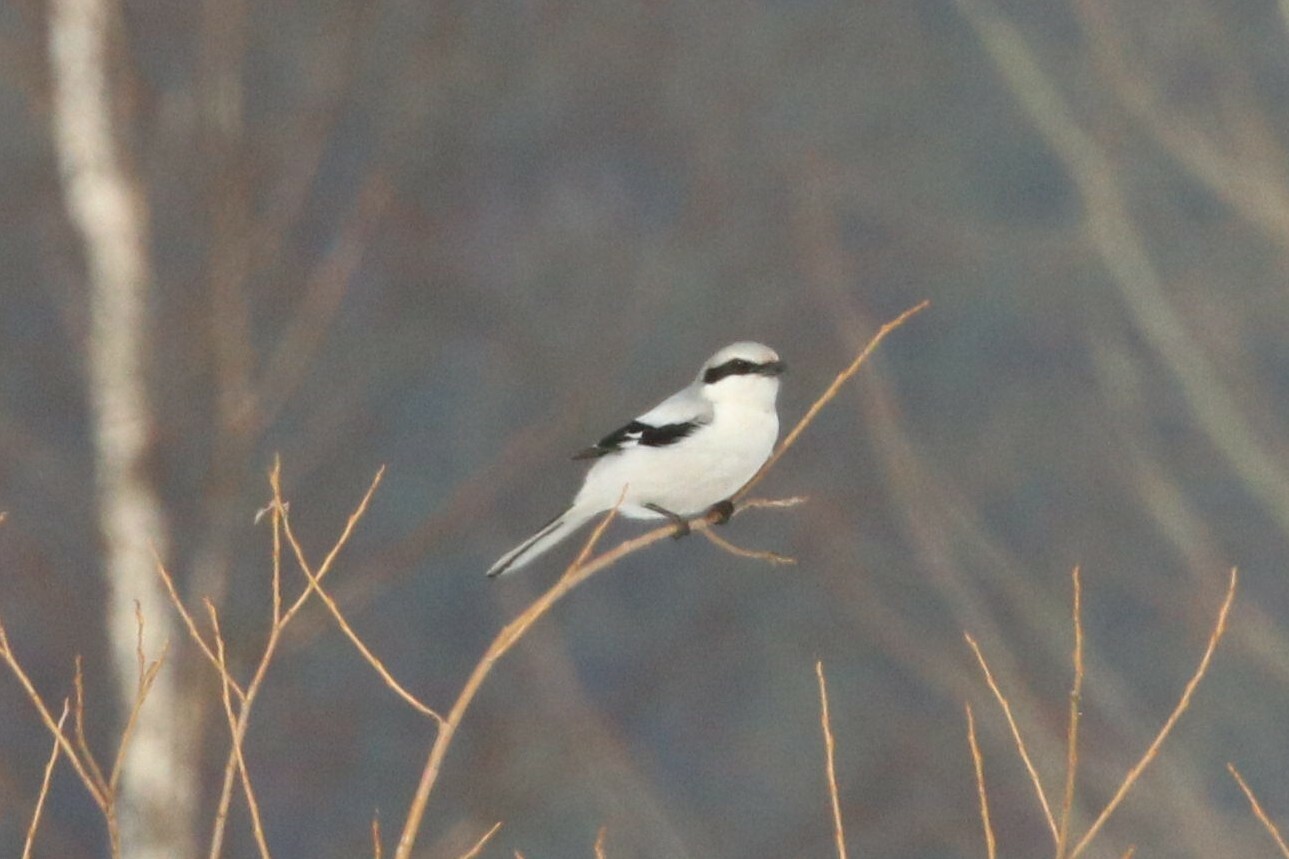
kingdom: Animalia
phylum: Chordata
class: Aves
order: Passeriformes
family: Laniidae
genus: Lanius
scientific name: Lanius excubitor
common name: Great grey shrike
